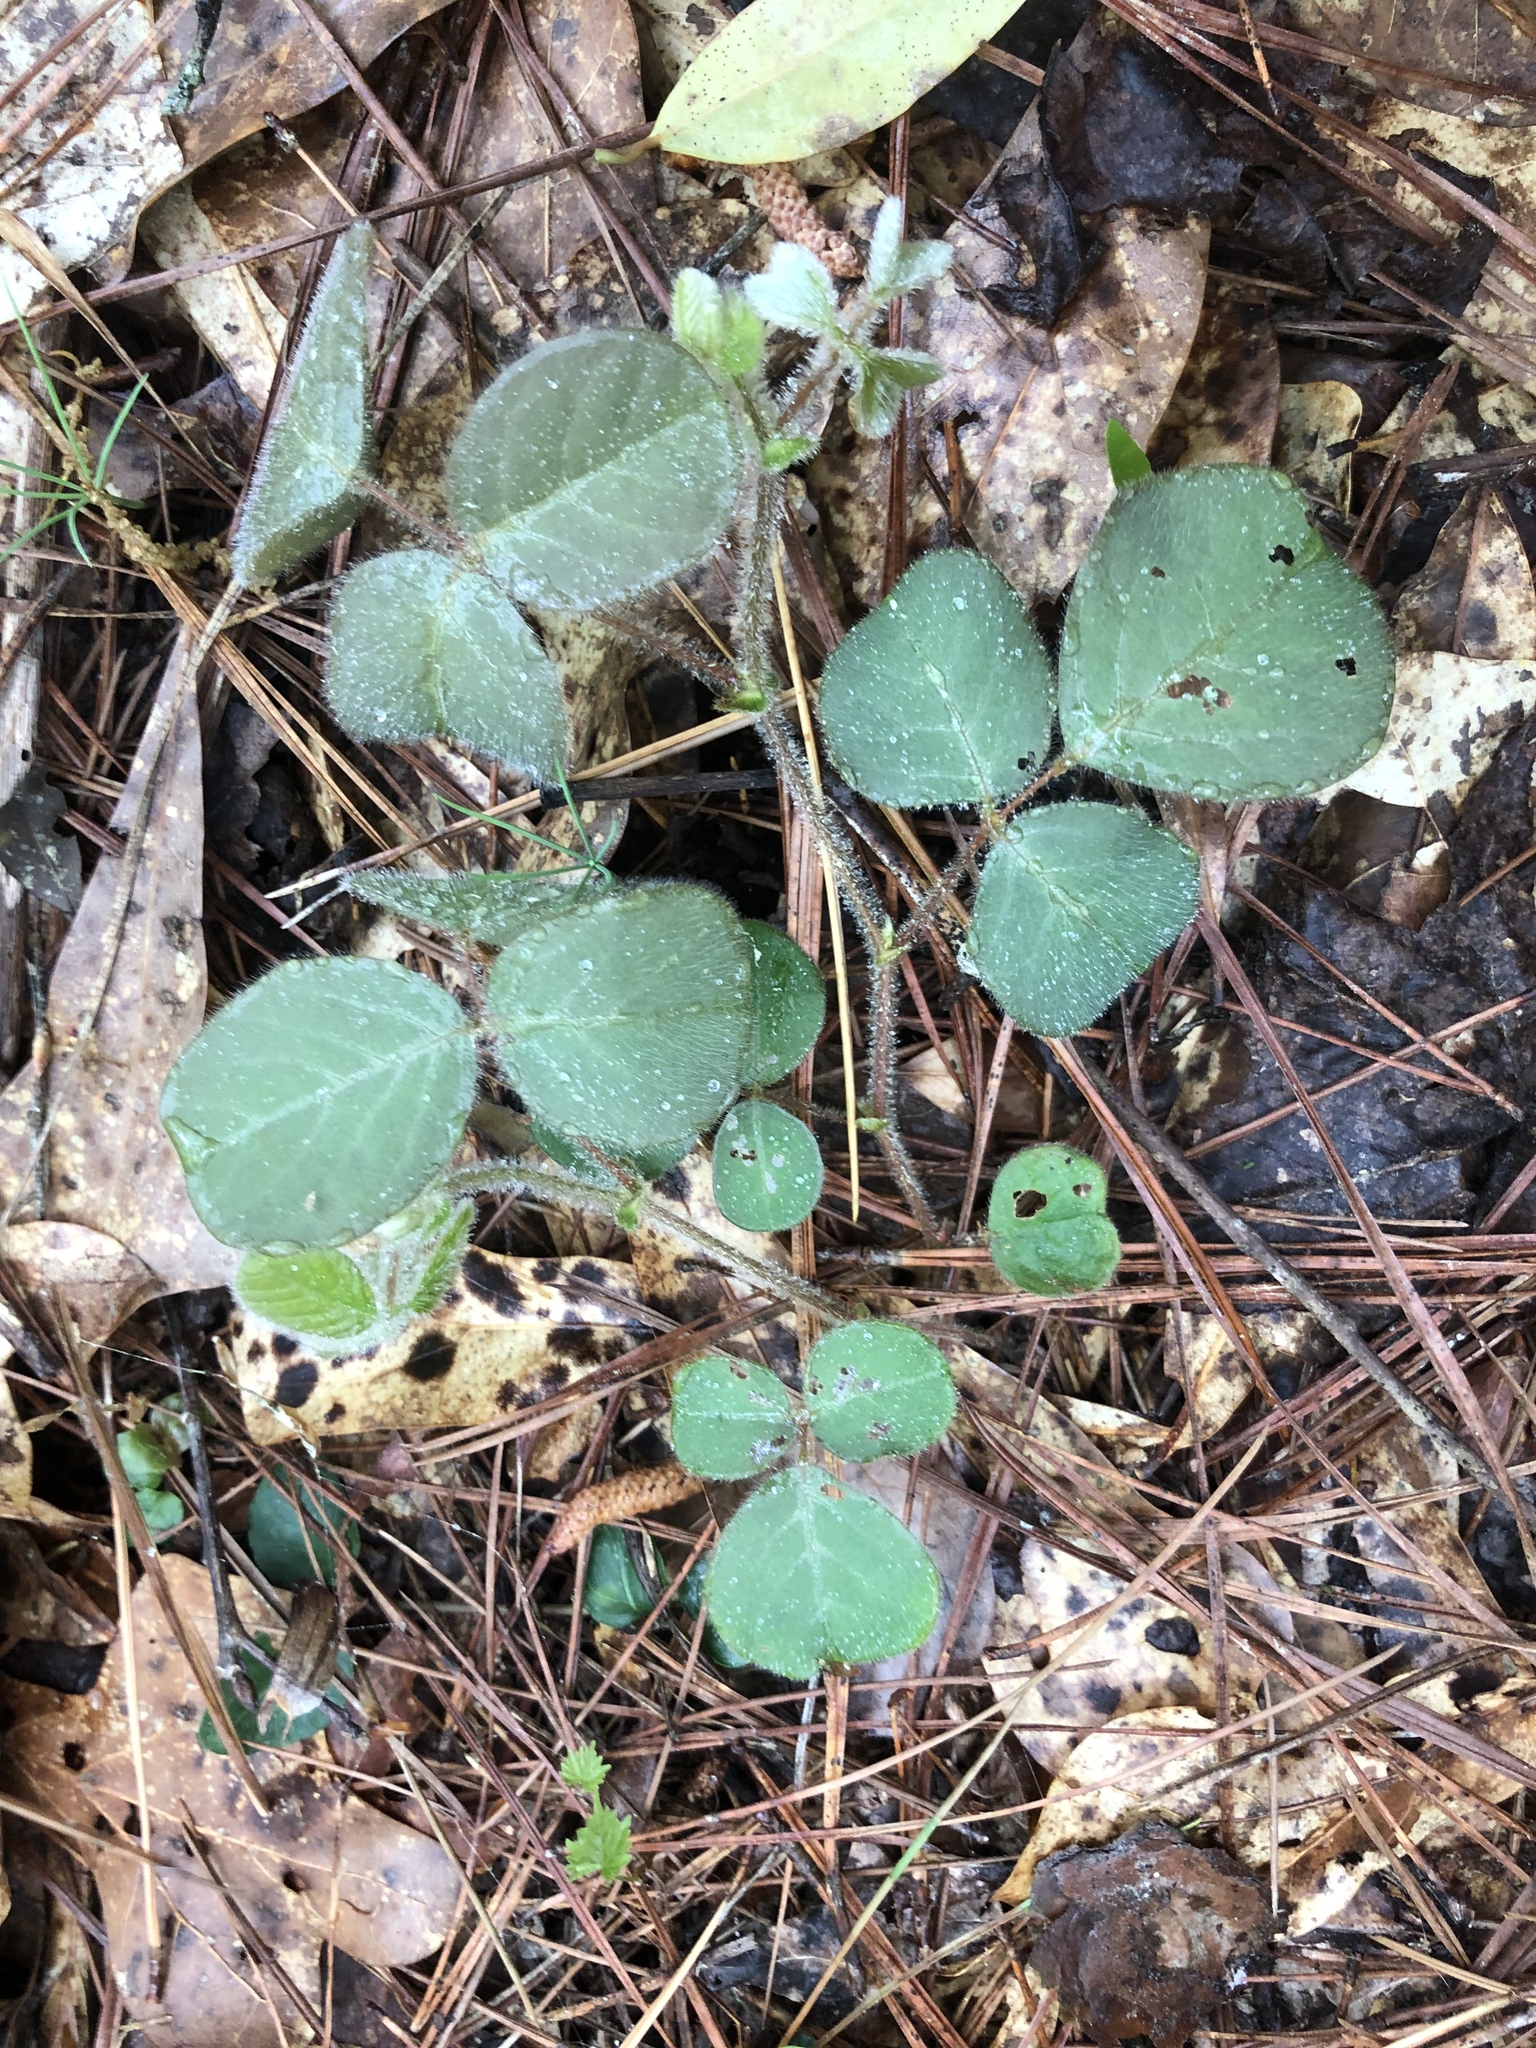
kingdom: Plantae
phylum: Tracheophyta
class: Magnoliopsida
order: Fabales
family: Fabaceae
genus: Desmodium
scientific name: Desmodium rotundifolium
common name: Dollarleaf
